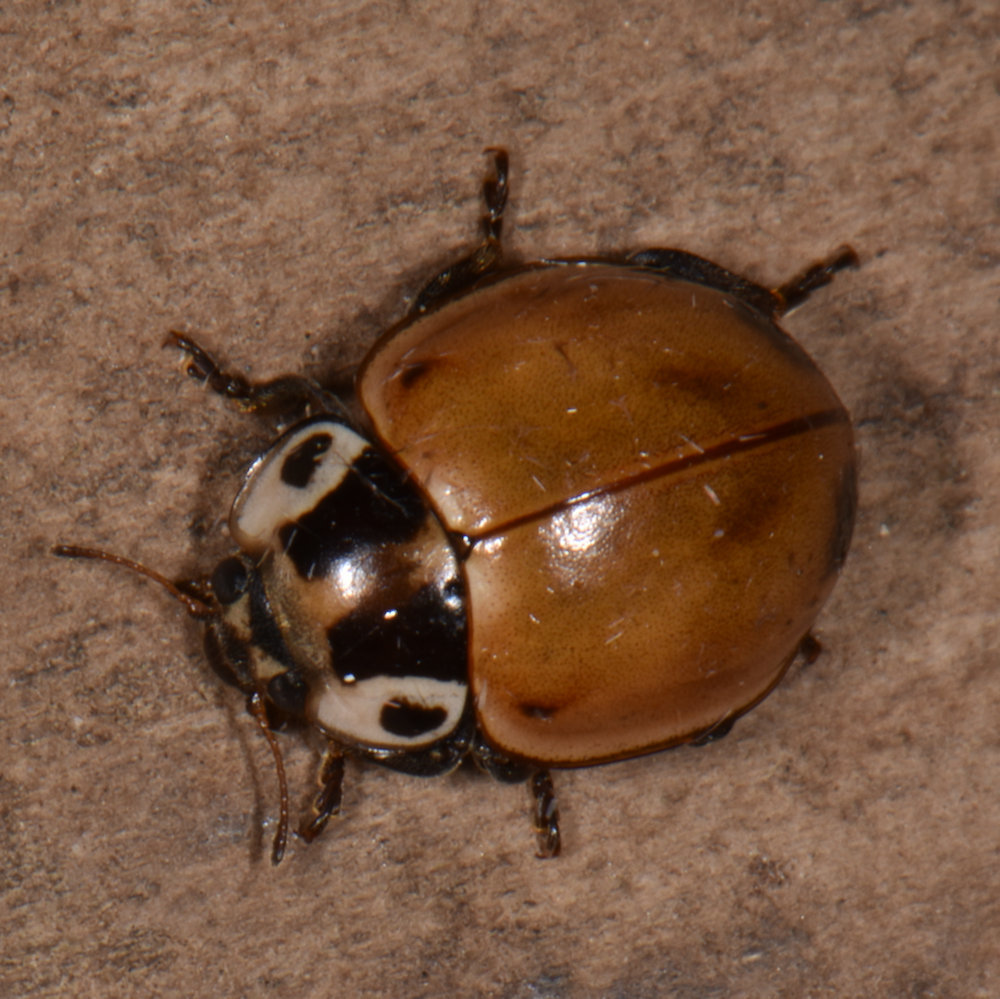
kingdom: Animalia
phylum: Arthropoda
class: Insecta
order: Coleoptera
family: Coccinellidae
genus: Myzia
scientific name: Myzia pullata
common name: Streaked lady beetle
